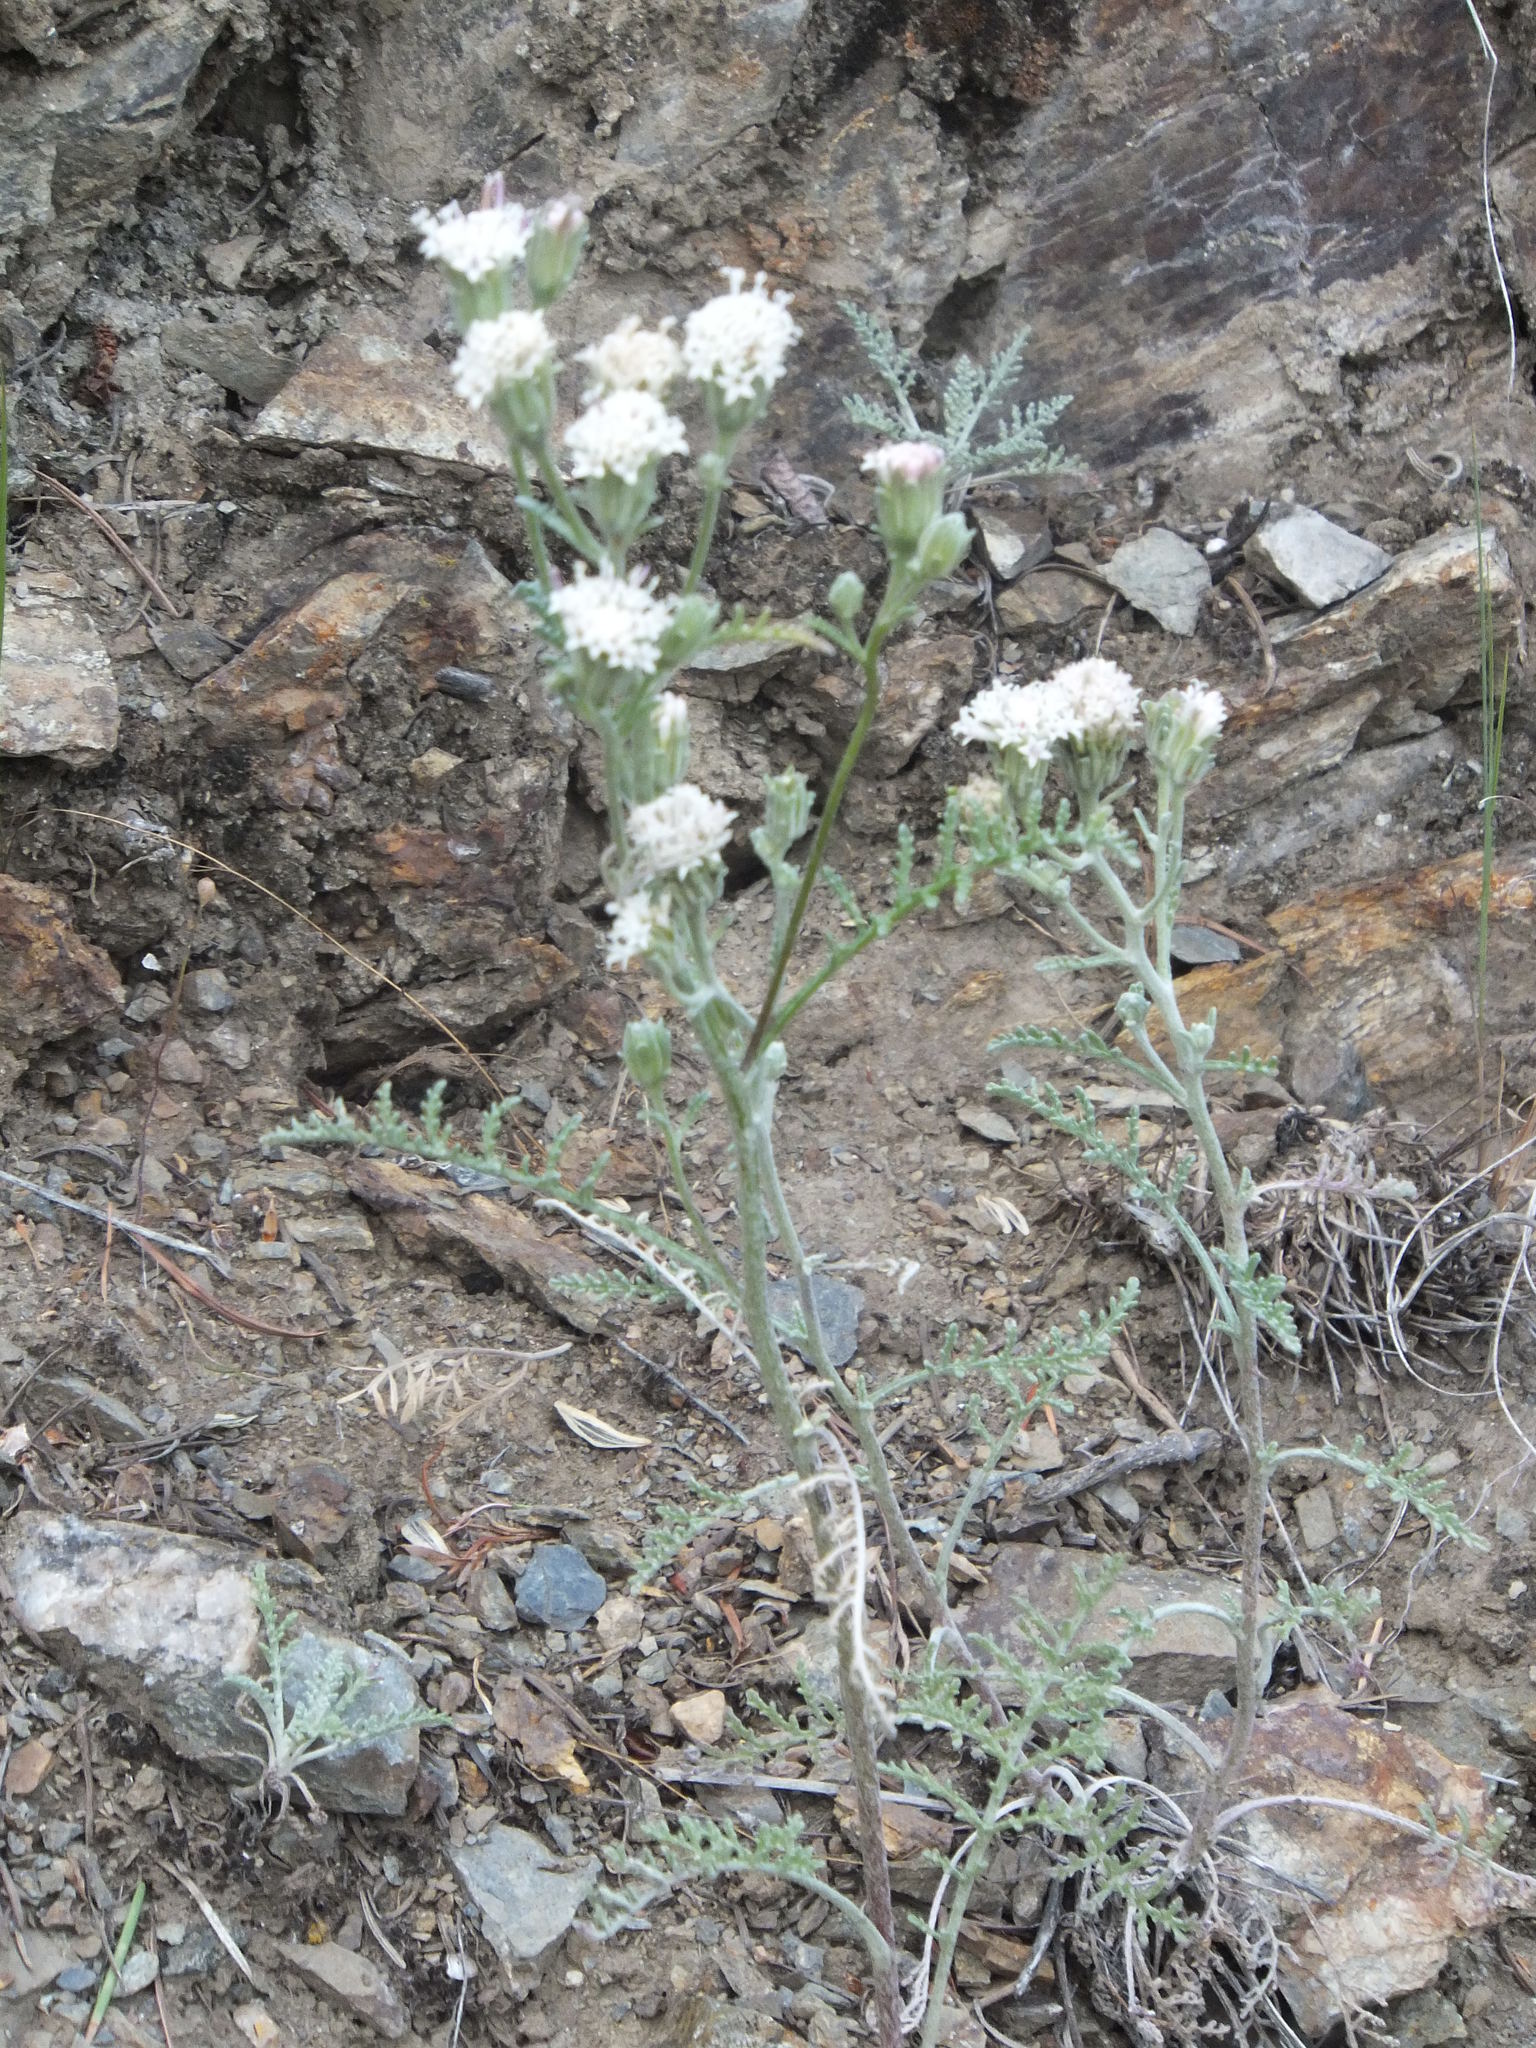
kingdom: Plantae
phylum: Tracheophyta
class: Magnoliopsida
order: Asterales
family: Asteraceae
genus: Chaenactis
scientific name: Chaenactis douglasii
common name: Hoary pincushion
